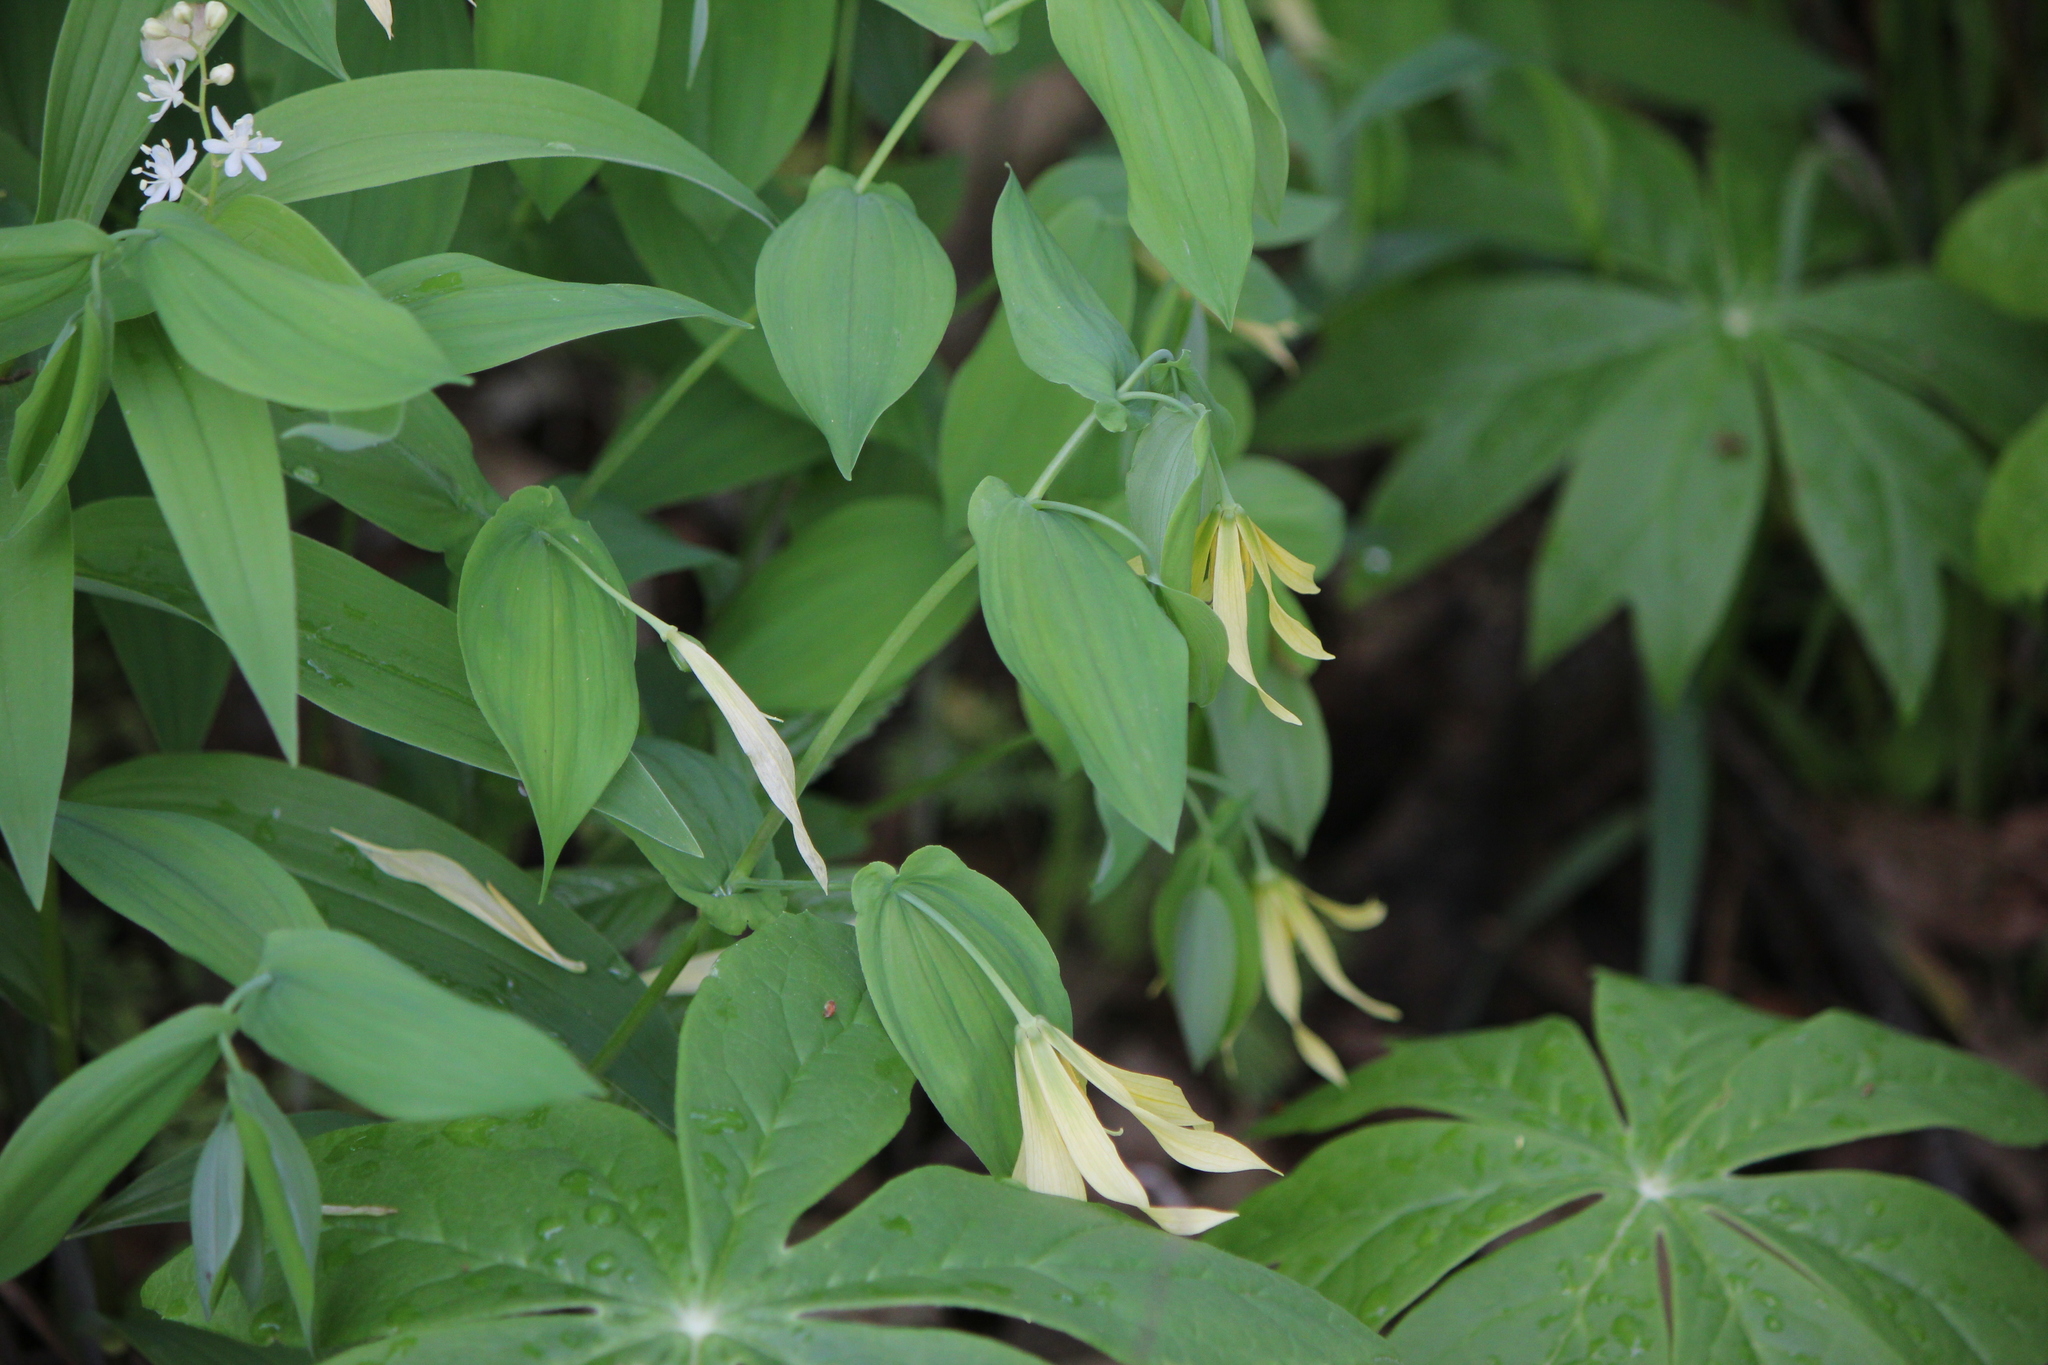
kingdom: Plantae
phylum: Tracheophyta
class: Liliopsida
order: Liliales
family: Colchicaceae
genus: Uvularia
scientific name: Uvularia grandiflora
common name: Bellwort
